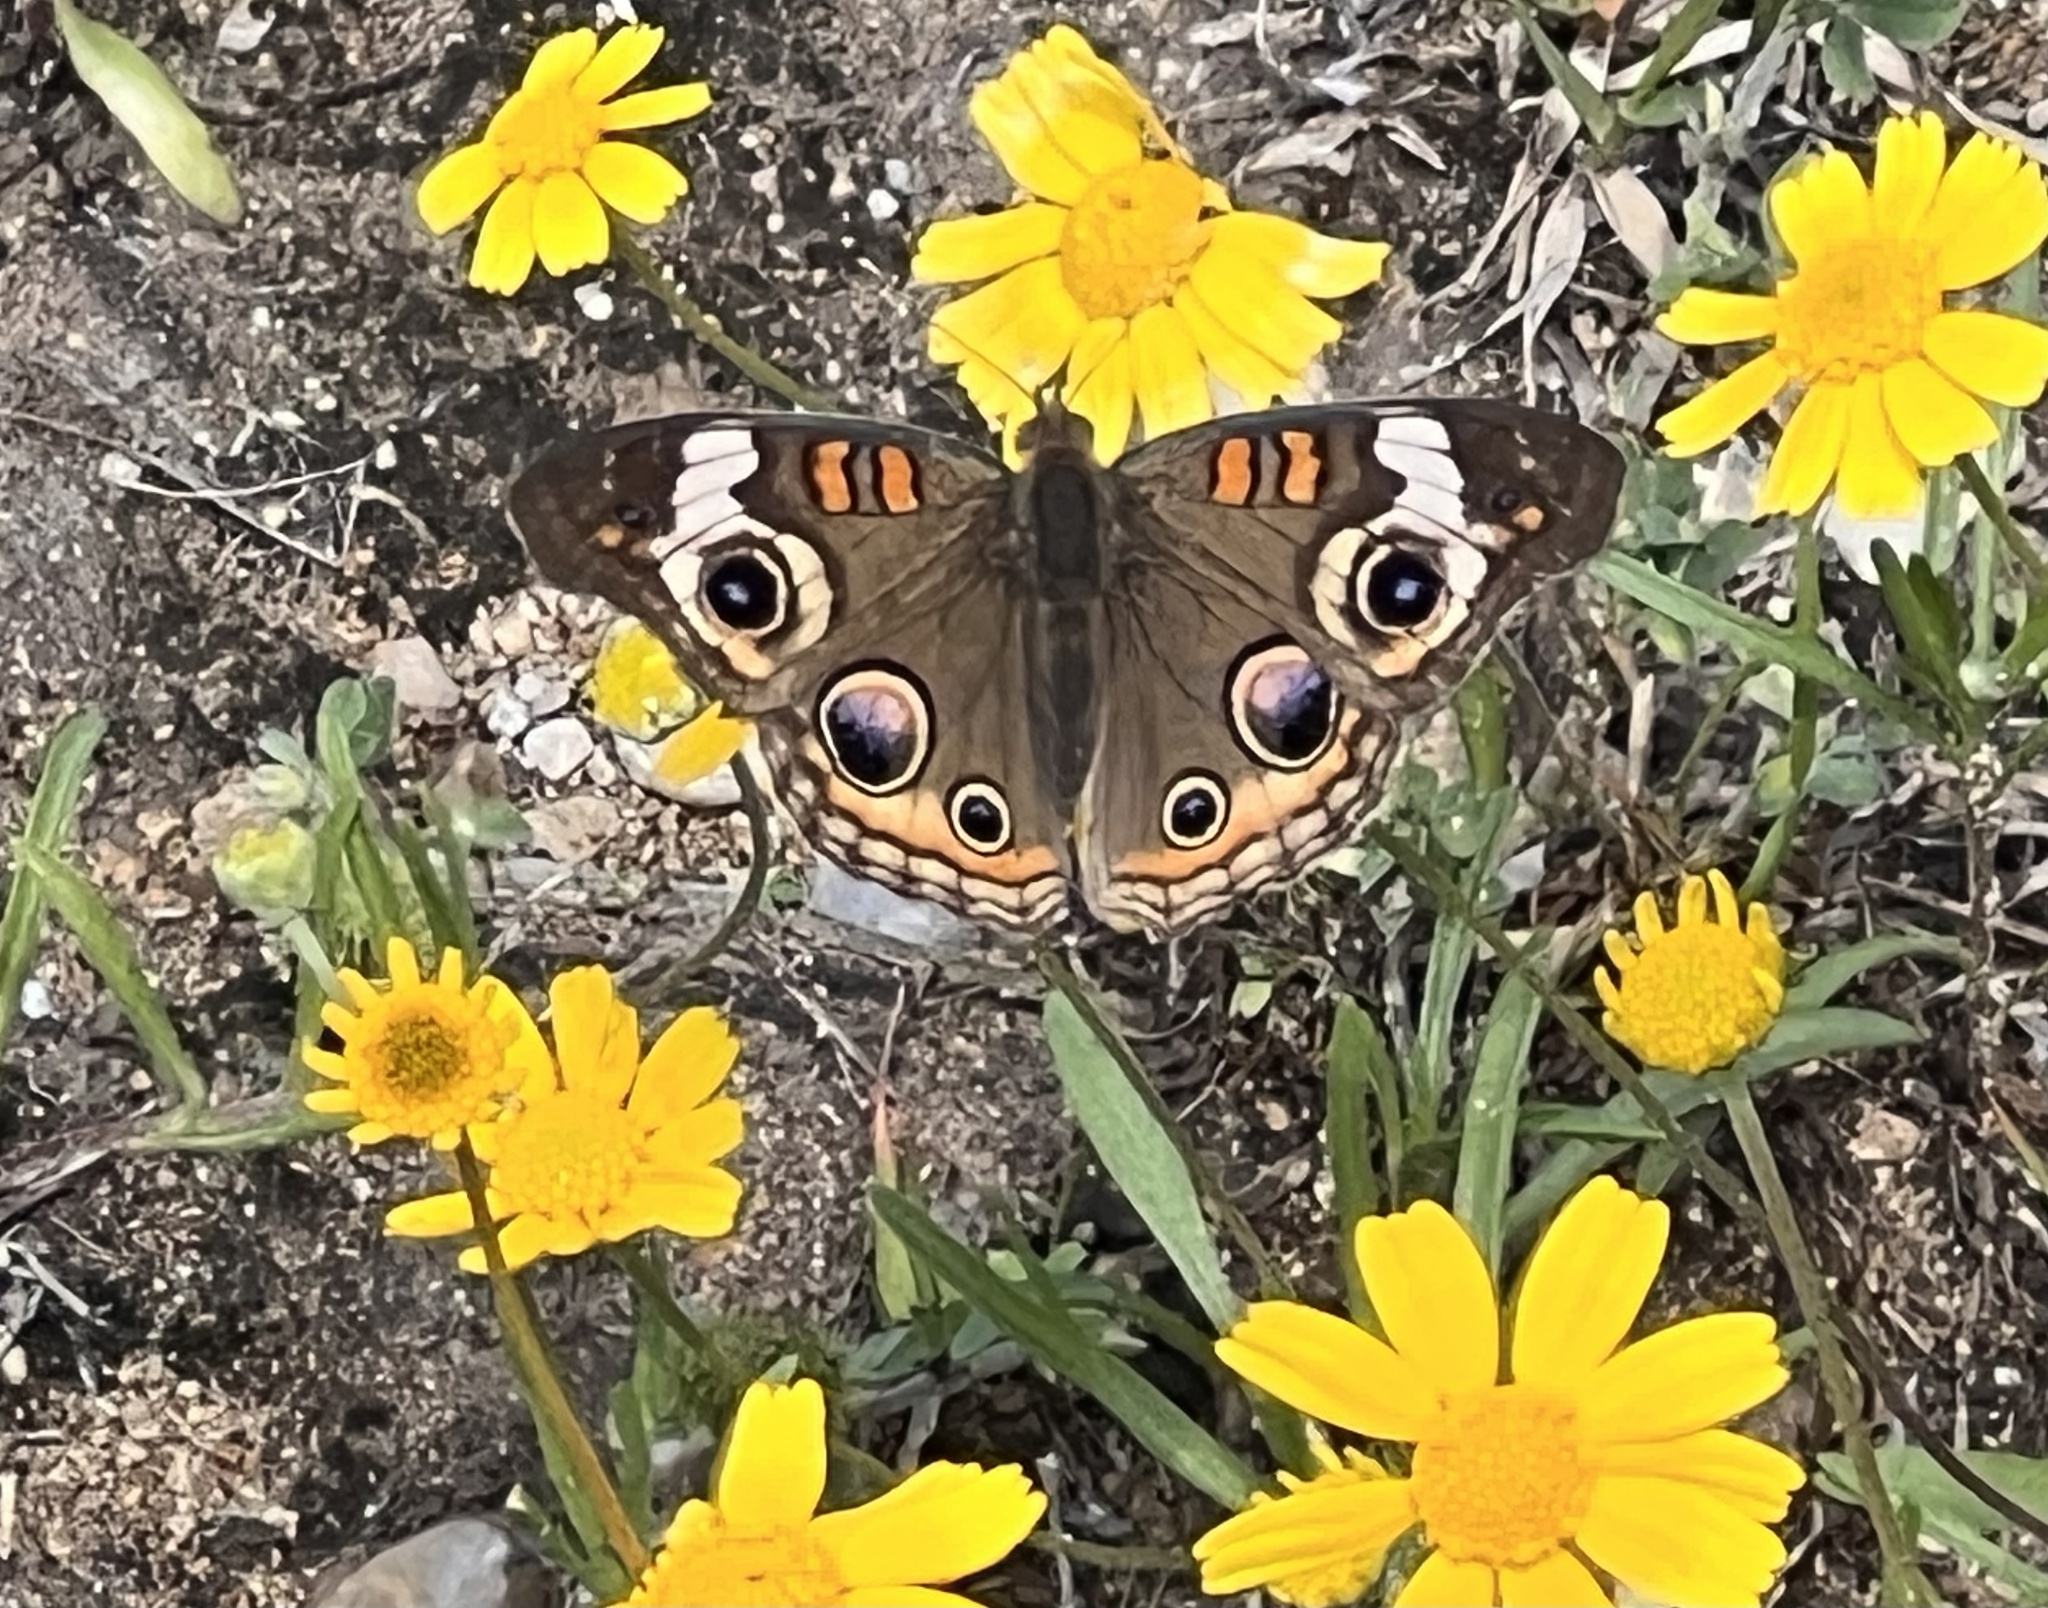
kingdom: Animalia
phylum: Arthropoda
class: Insecta
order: Lepidoptera
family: Nymphalidae
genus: Junonia
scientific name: Junonia coenia
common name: Common buckeye
